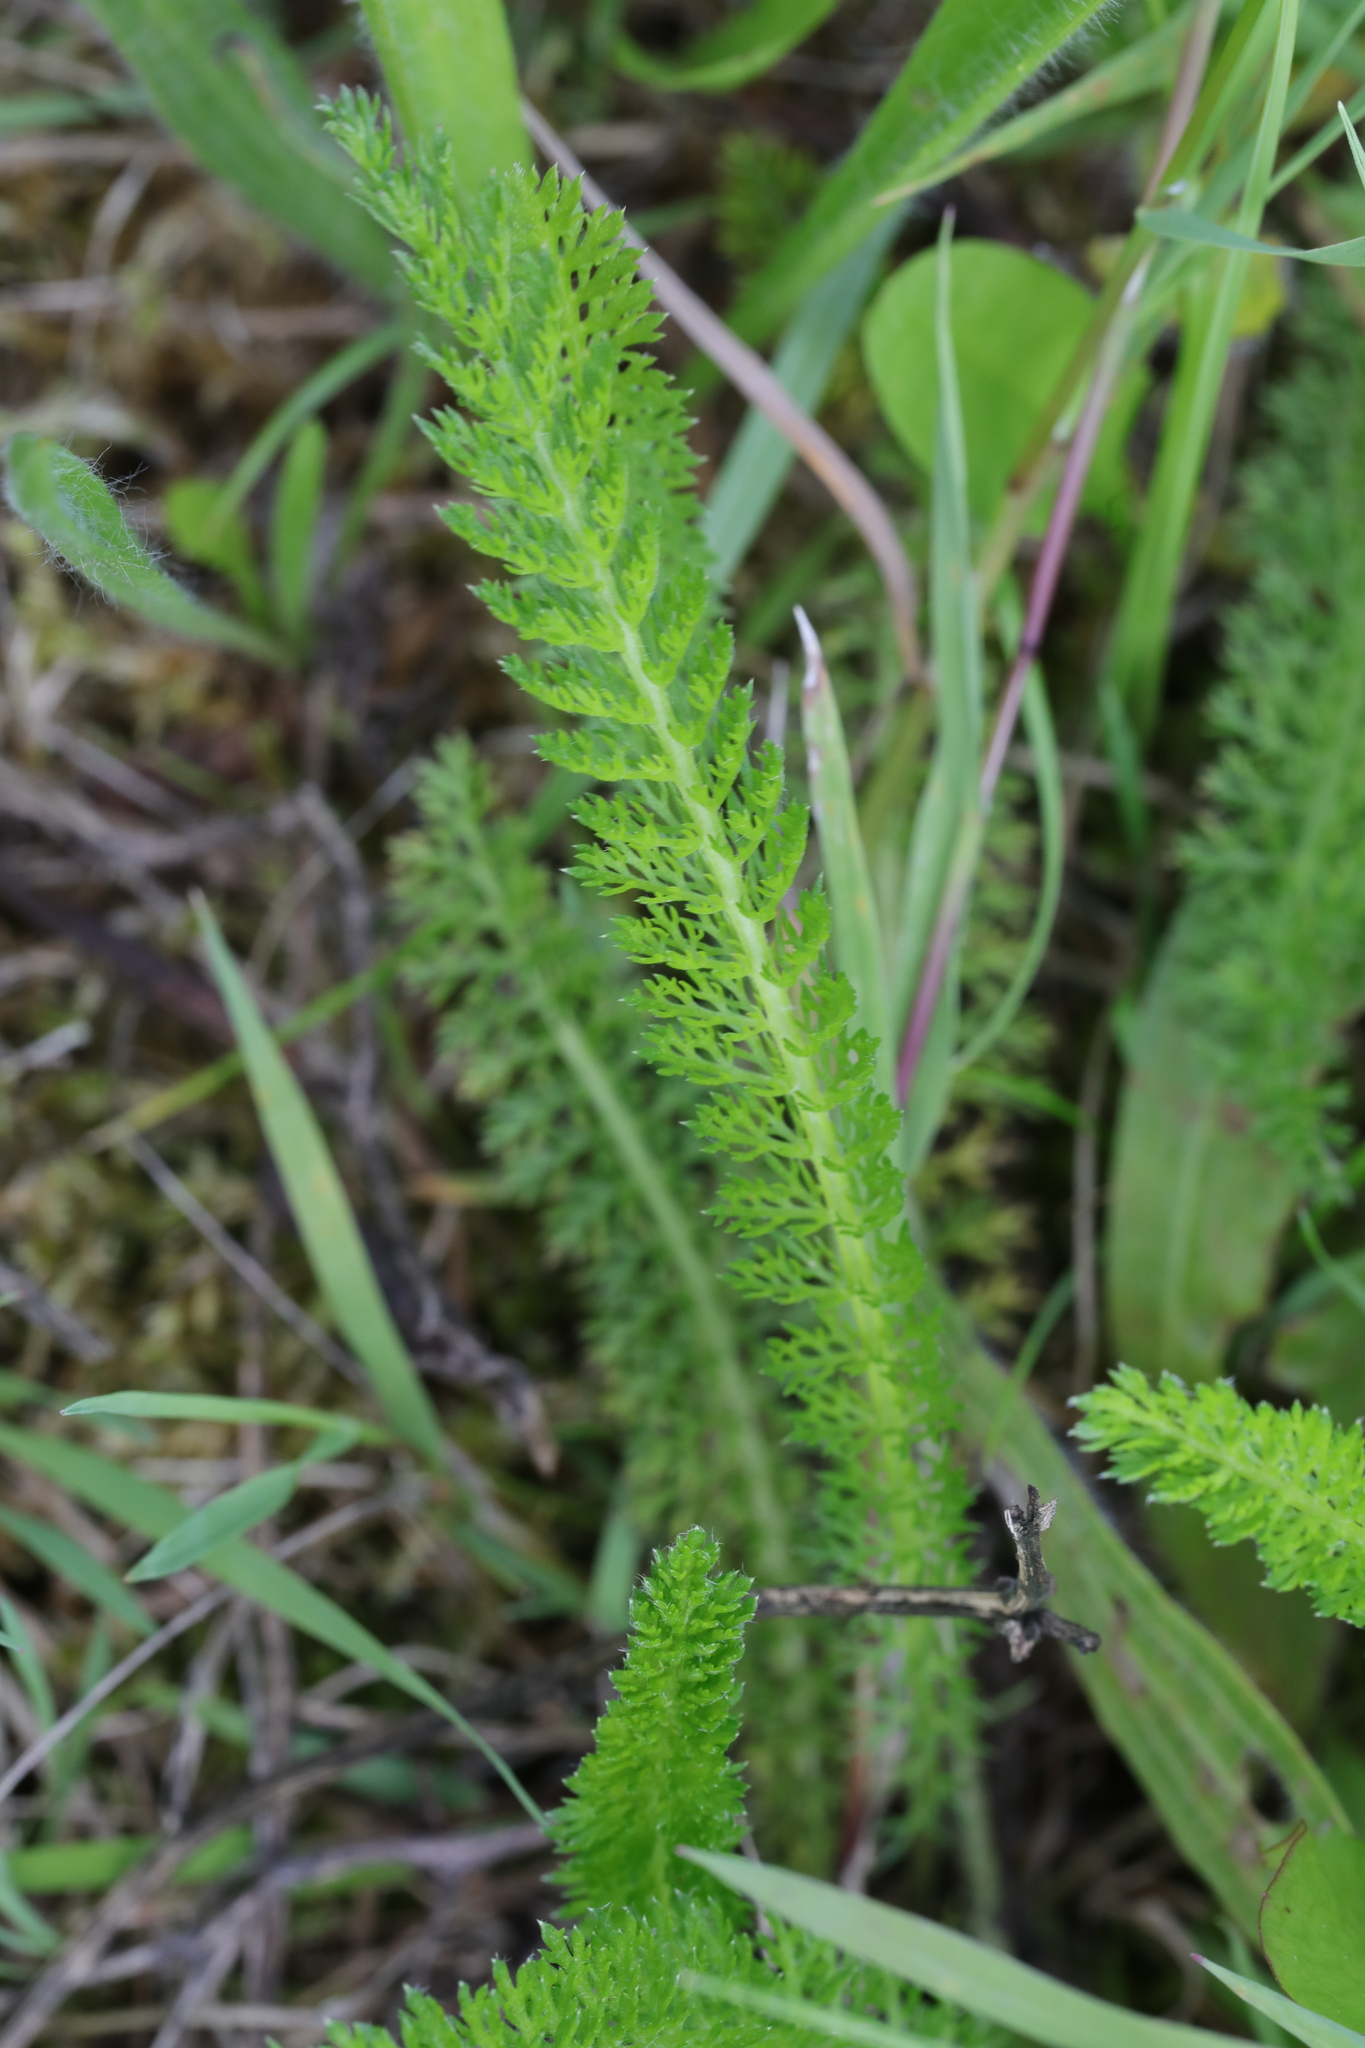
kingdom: Plantae
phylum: Tracheophyta
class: Magnoliopsida
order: Asterales
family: Asteraceae
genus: Achillea
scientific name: Achillea millefolium
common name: Yarrow
